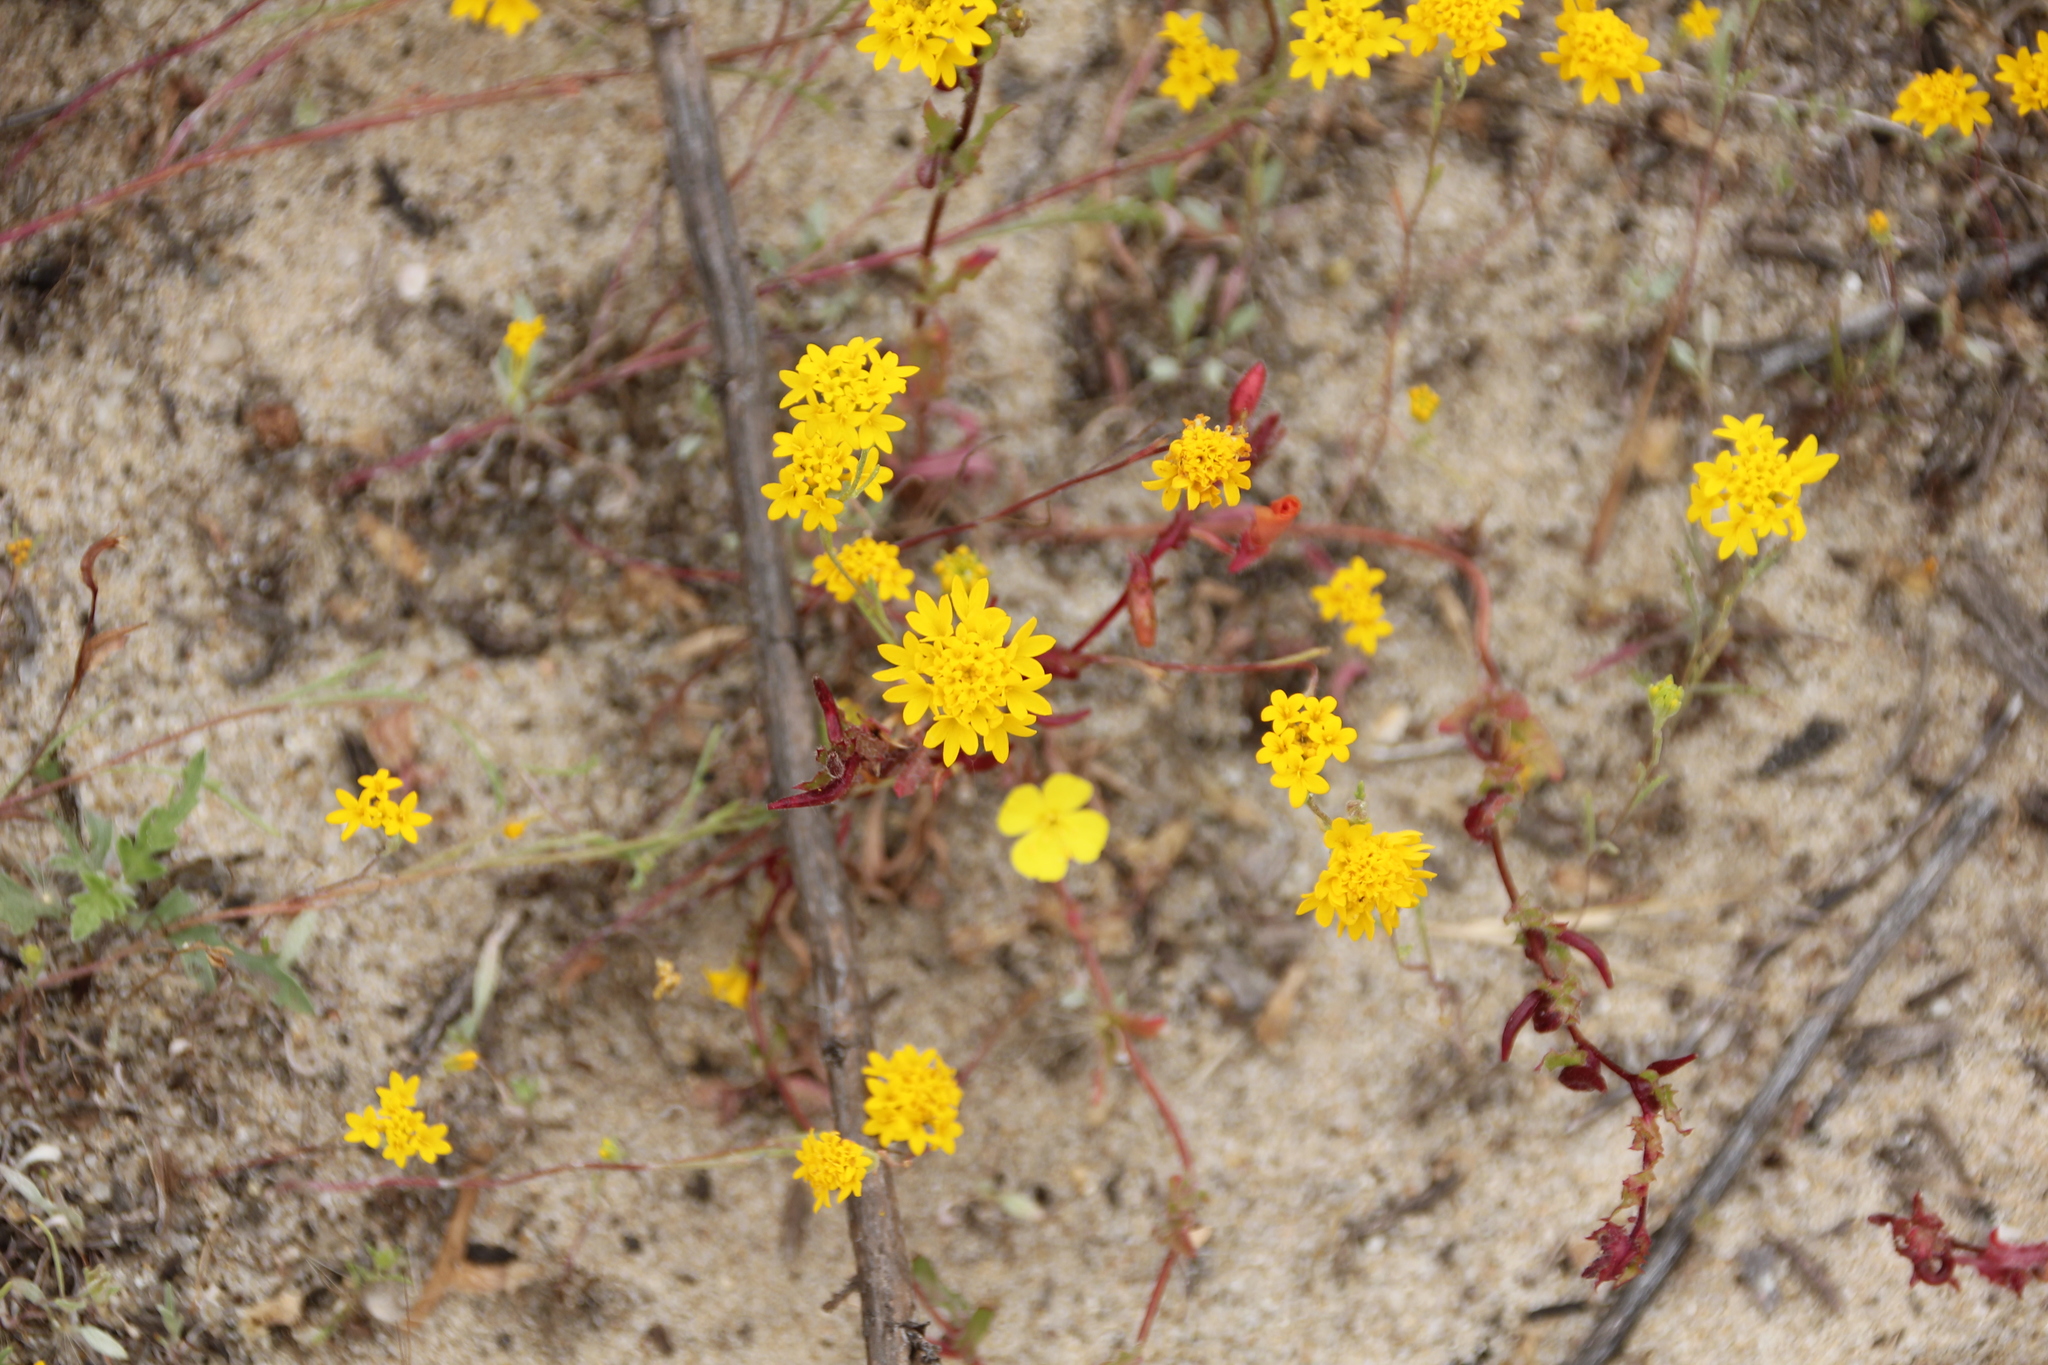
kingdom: Plantae
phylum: Tracheophyta
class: Magnoliopsida
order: Asterales
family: Asteraceae
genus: Chaenactis
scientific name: Chaenactis glabriuscula
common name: Yellow pincushion
